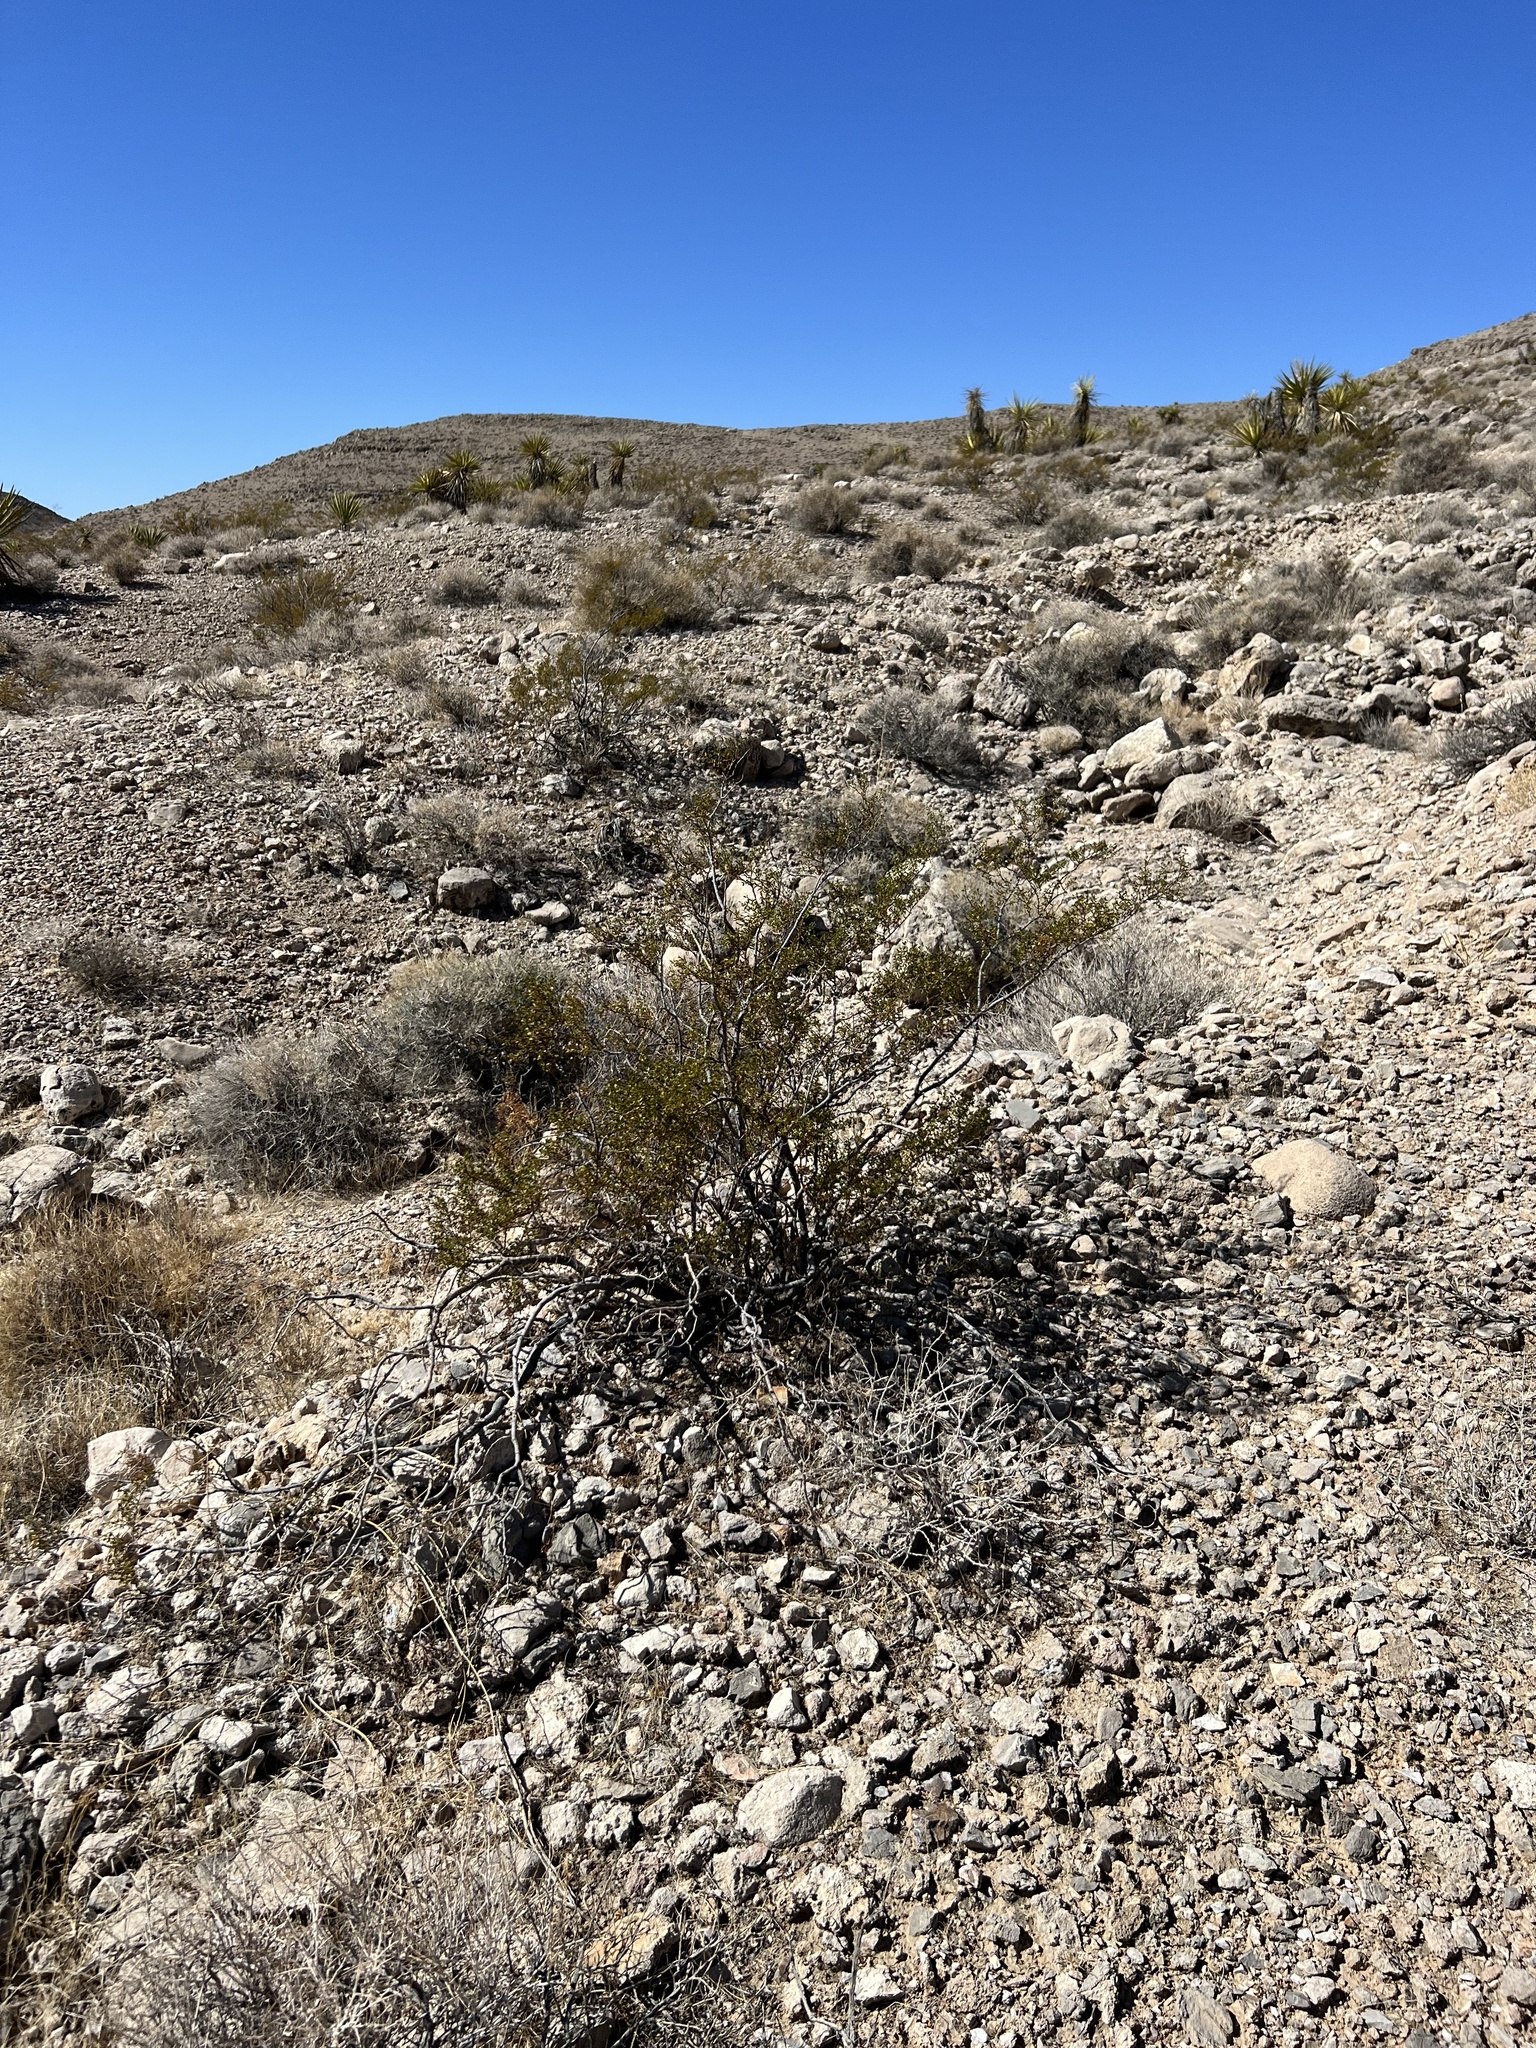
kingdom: Plantae
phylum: Tracheophyta
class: Magnoliopsida
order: Zygophyllales
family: Zygophyllaceae
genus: Larrea
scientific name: Larrea tridentata
